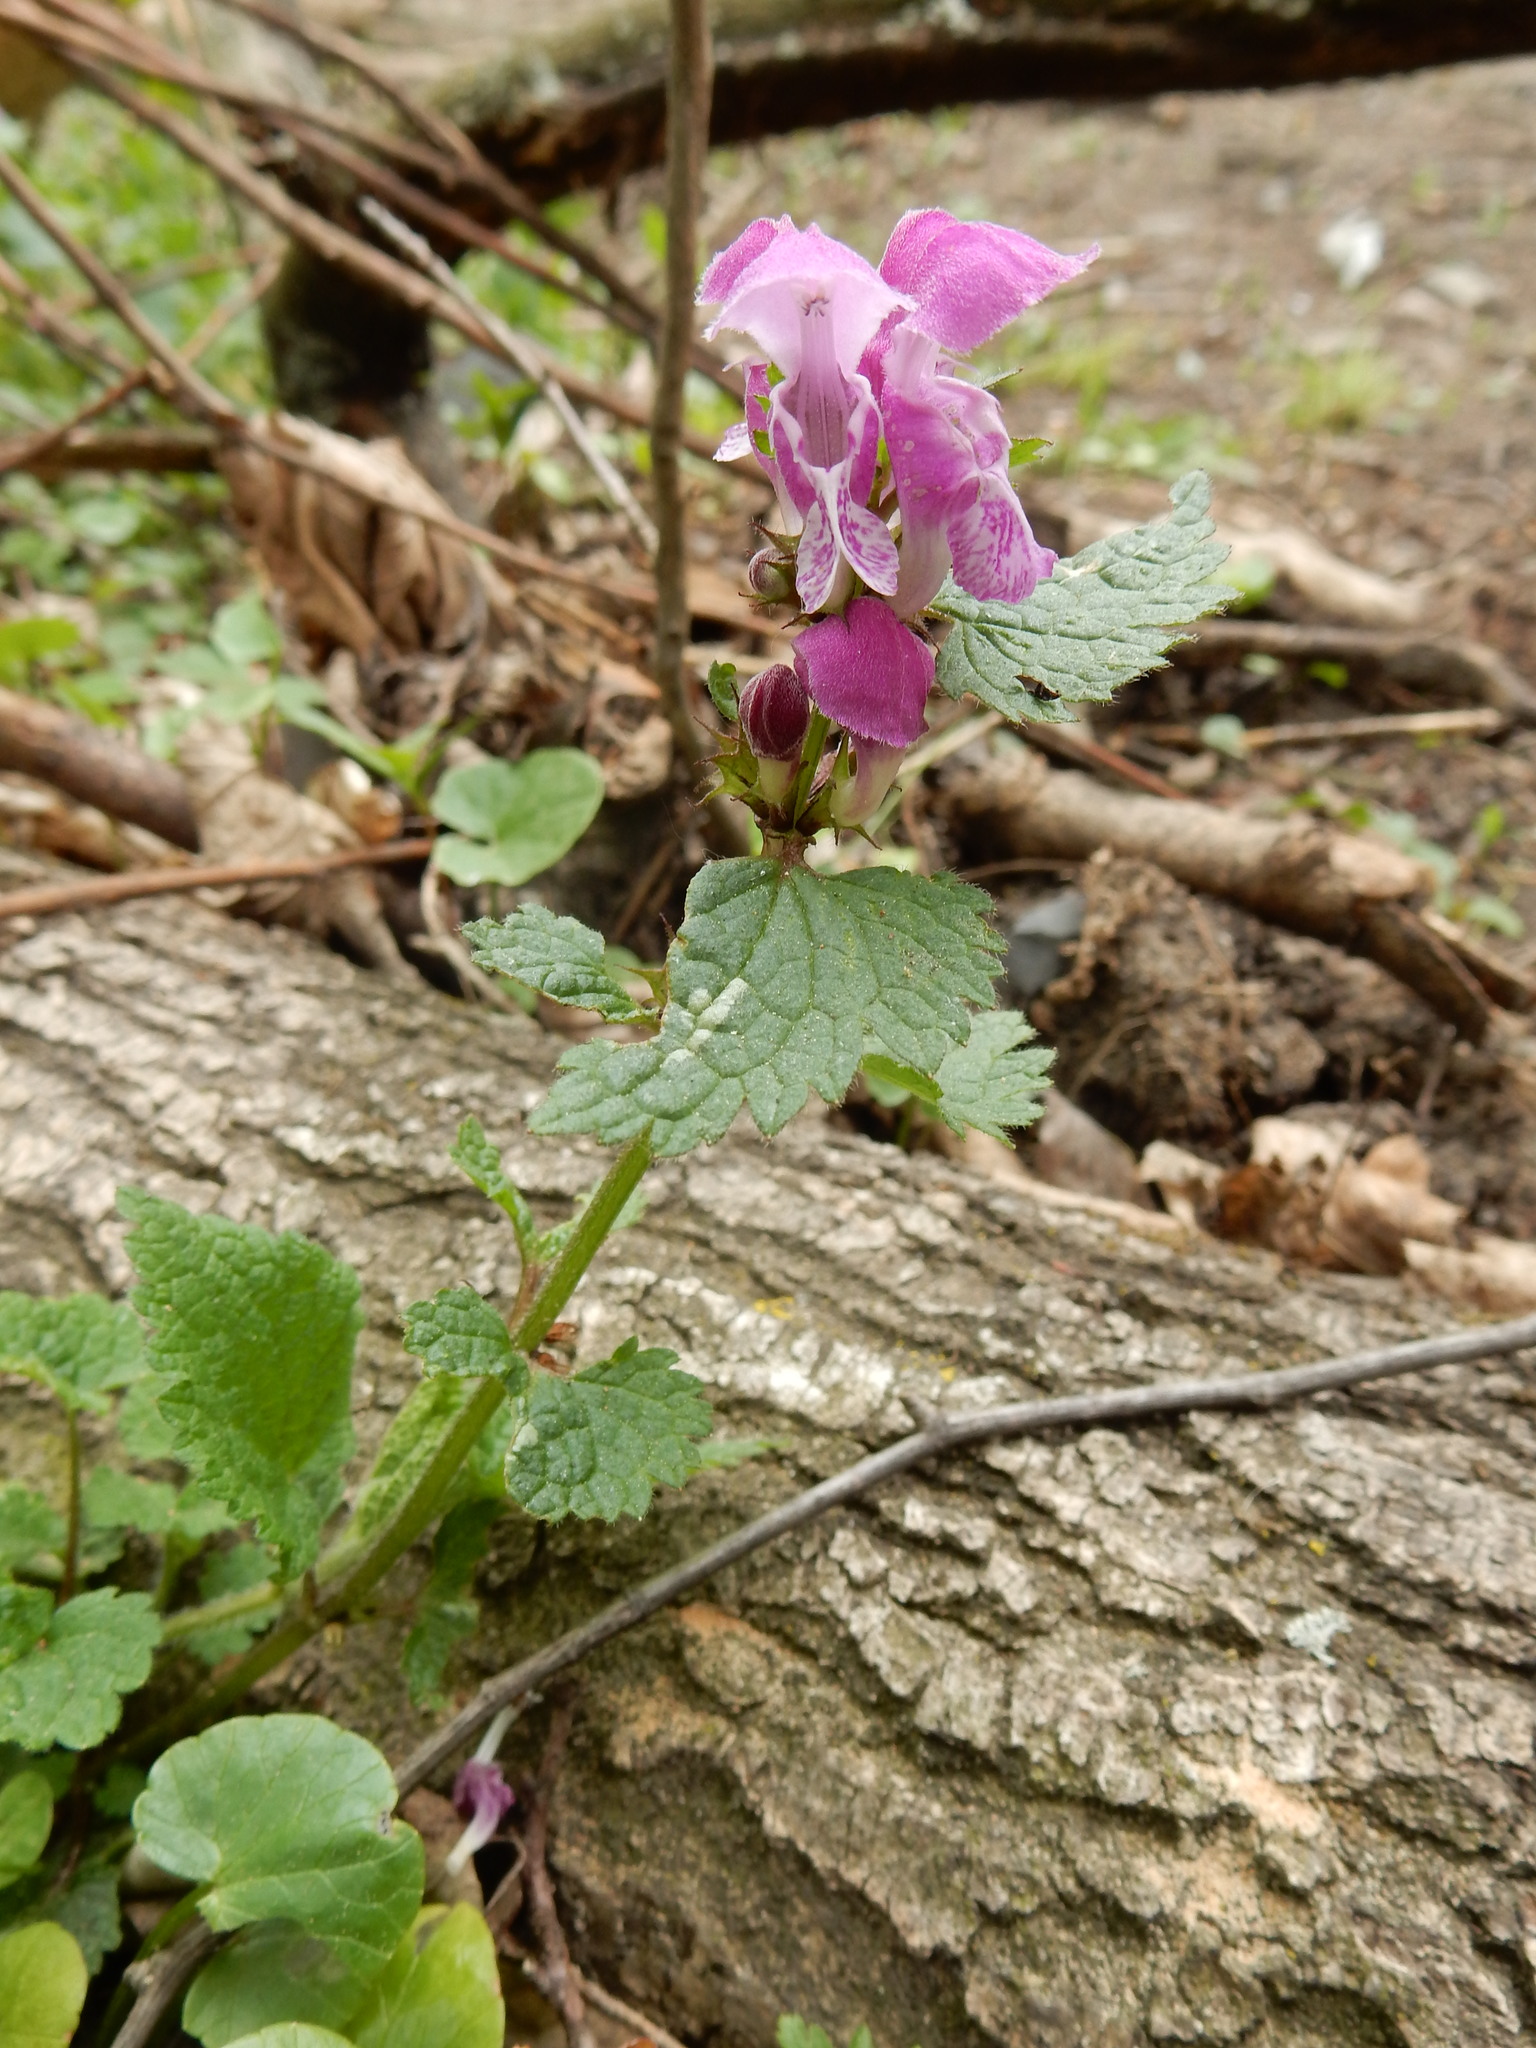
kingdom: Plantae
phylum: Tracheophyta
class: Magnoliopsida
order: Lamiales
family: Lamiaceae
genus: Lamium
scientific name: Lamium maculatum
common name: Spotted dead-nettle
